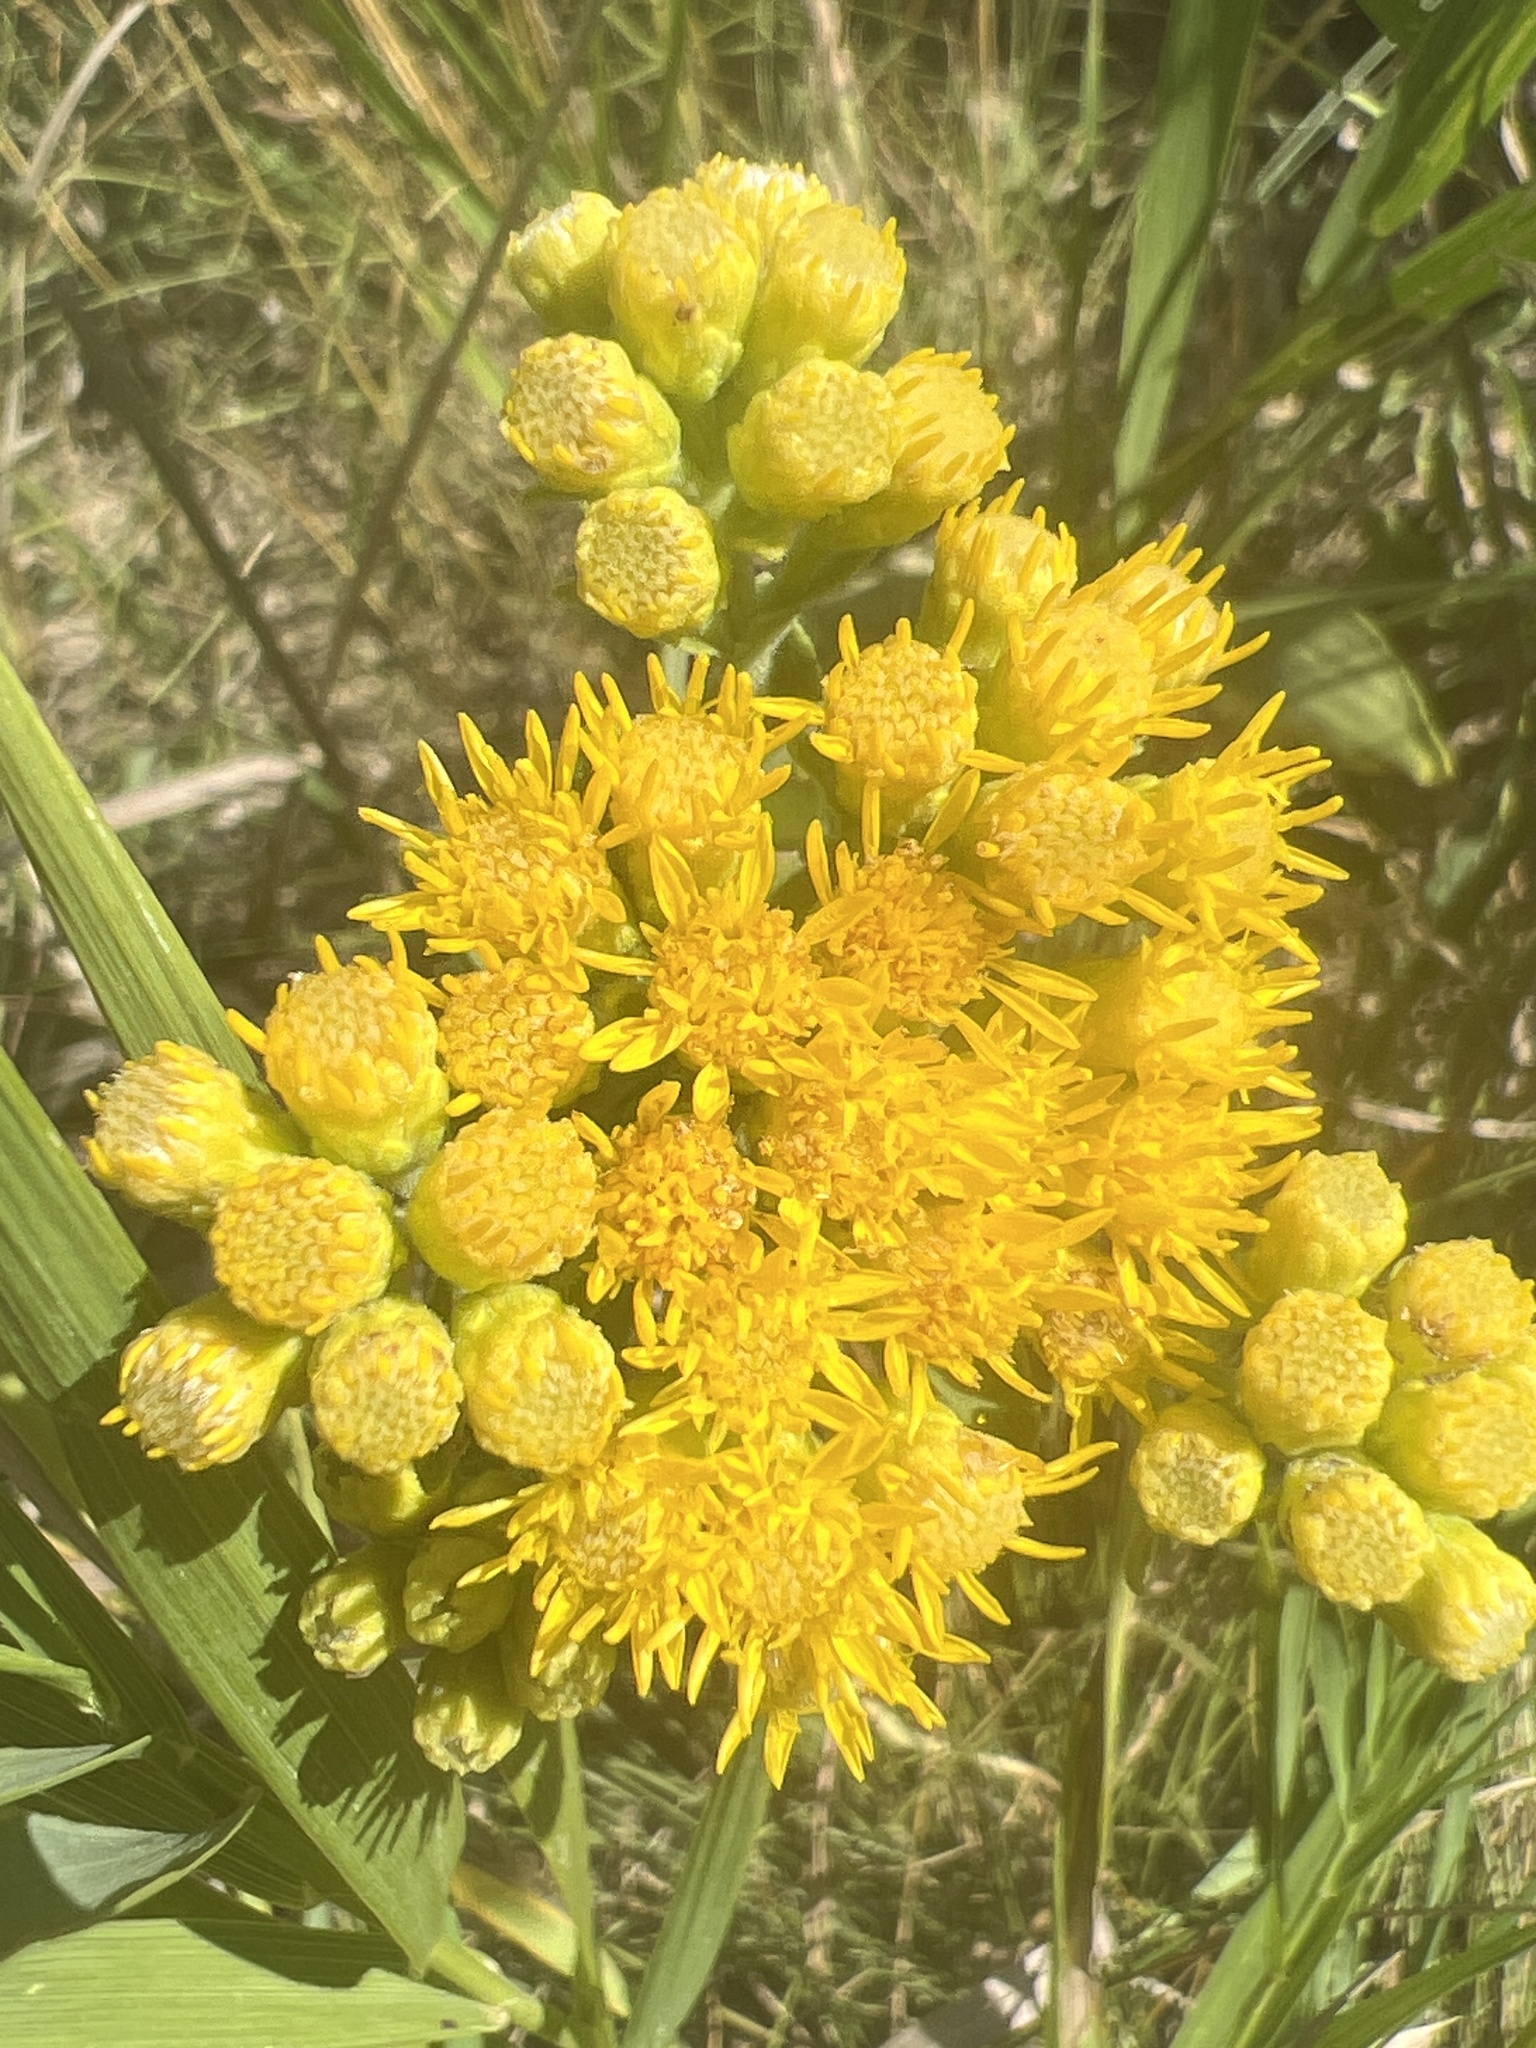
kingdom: Plantae
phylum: Tracheophyta
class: Magnoliopsida
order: Asterales
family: Asteraceae
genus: Solidago
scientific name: Solidago rigida
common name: Rigid goldenrod
